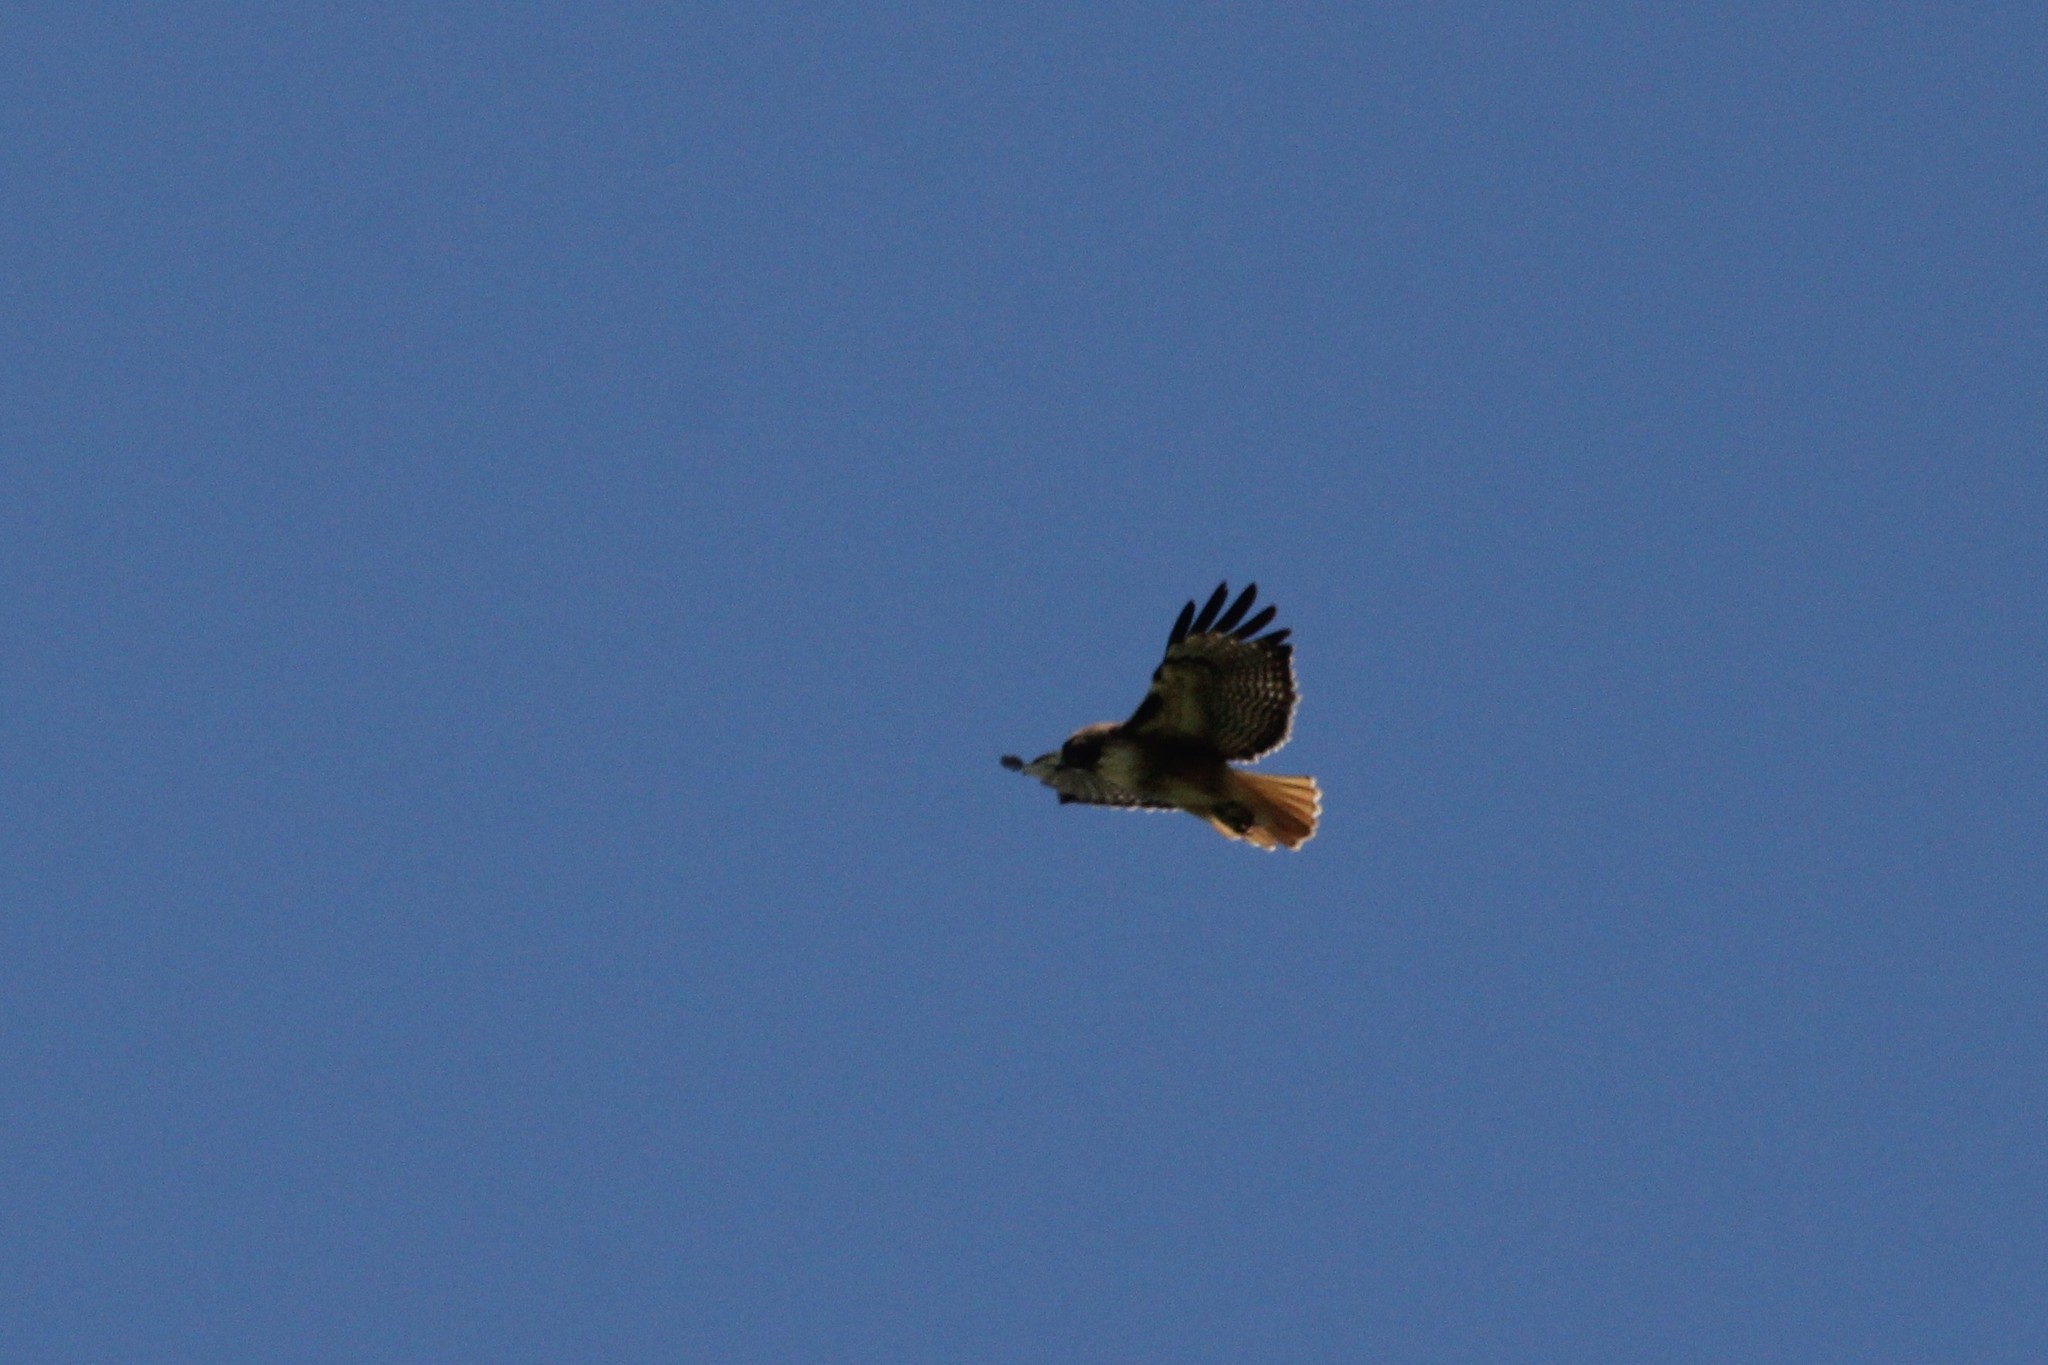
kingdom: Animalia
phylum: Chordata
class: Aves
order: Accipitriformes
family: Accipitridae
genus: Buteo
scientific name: Buteo jamaicensis
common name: Red-tailed hawk
